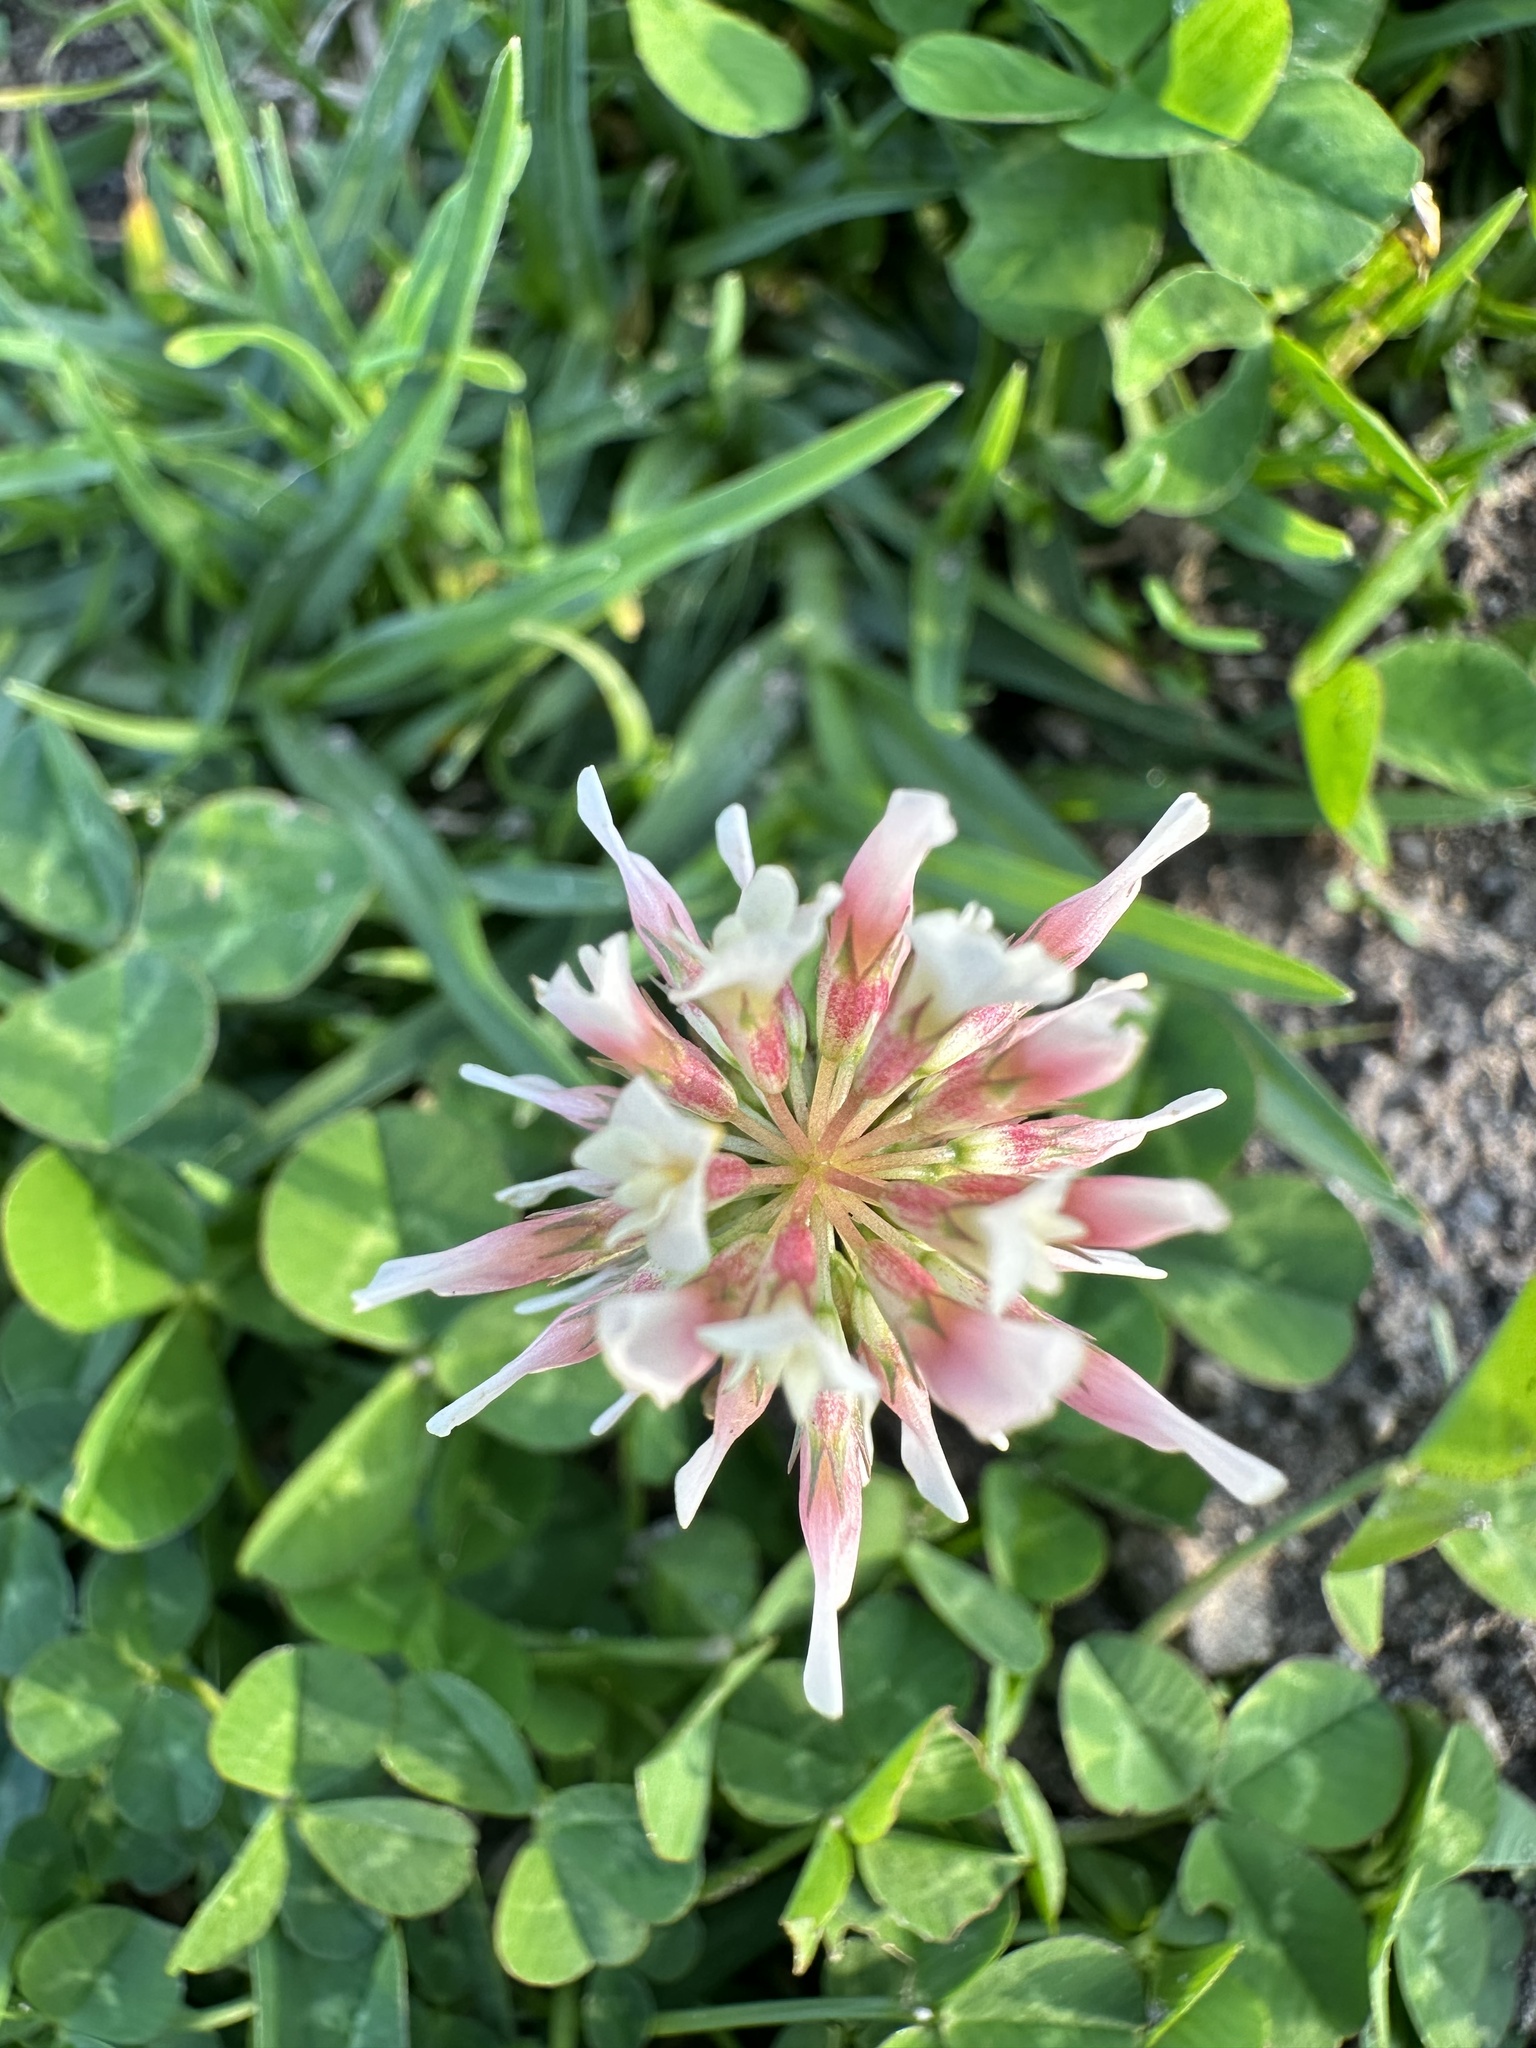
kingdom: Plantae
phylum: Tracheophyta
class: Magnoliopsida
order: Fabales
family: Fabaceae
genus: Trifolium
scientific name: Trifolium repens
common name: White clover
